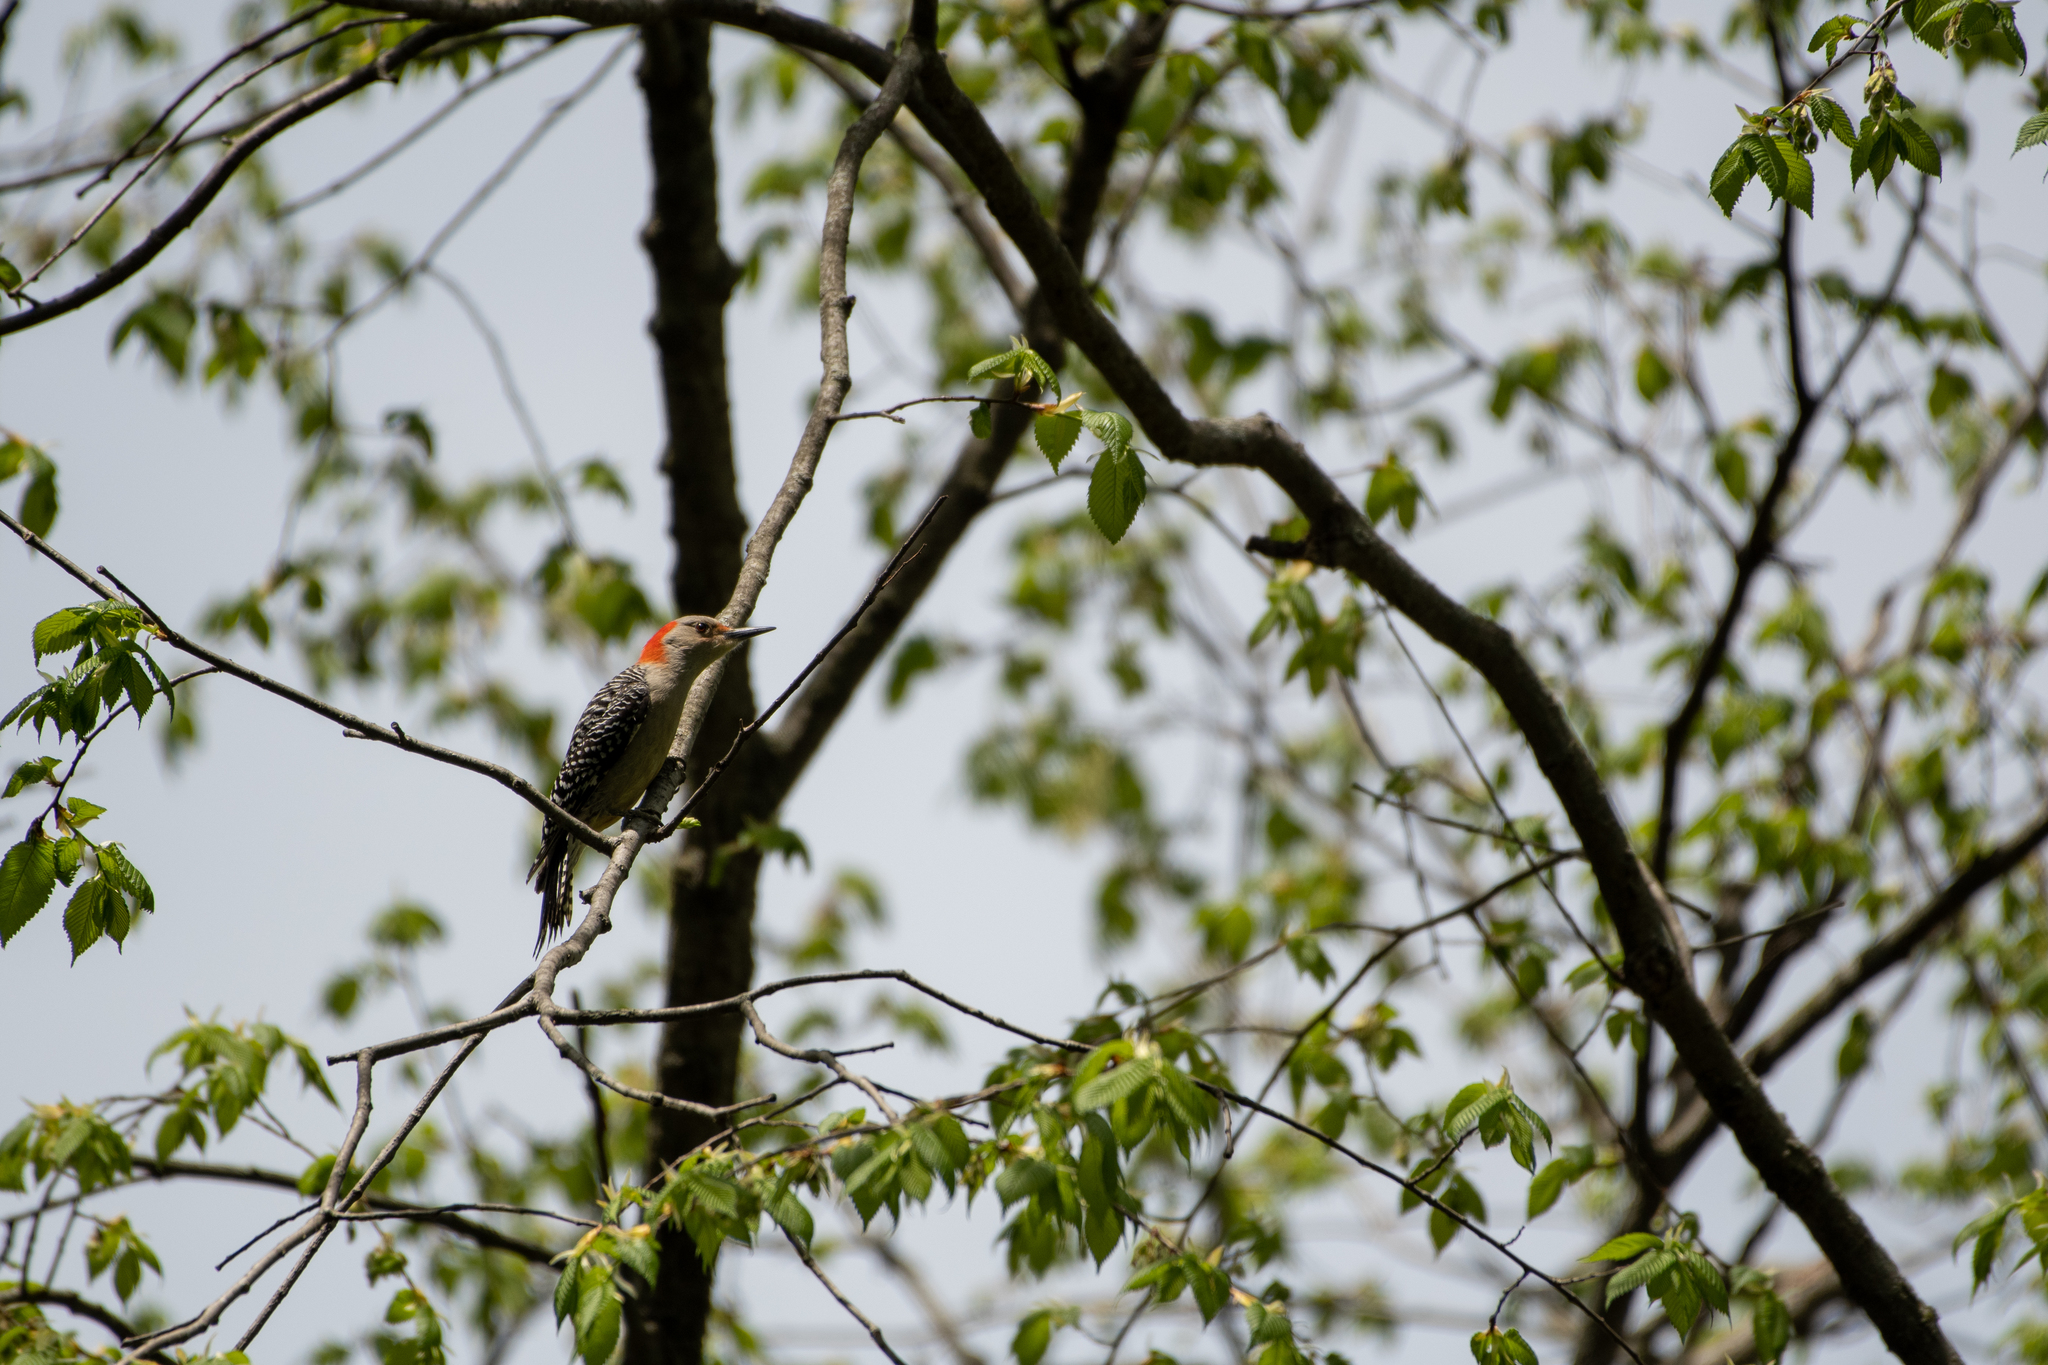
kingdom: Animalia
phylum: Chordata
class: Aves
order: Piciformes
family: Picidae
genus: Melanerpes
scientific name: Melanerpes carolinus
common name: Red-bellied woodpecker
